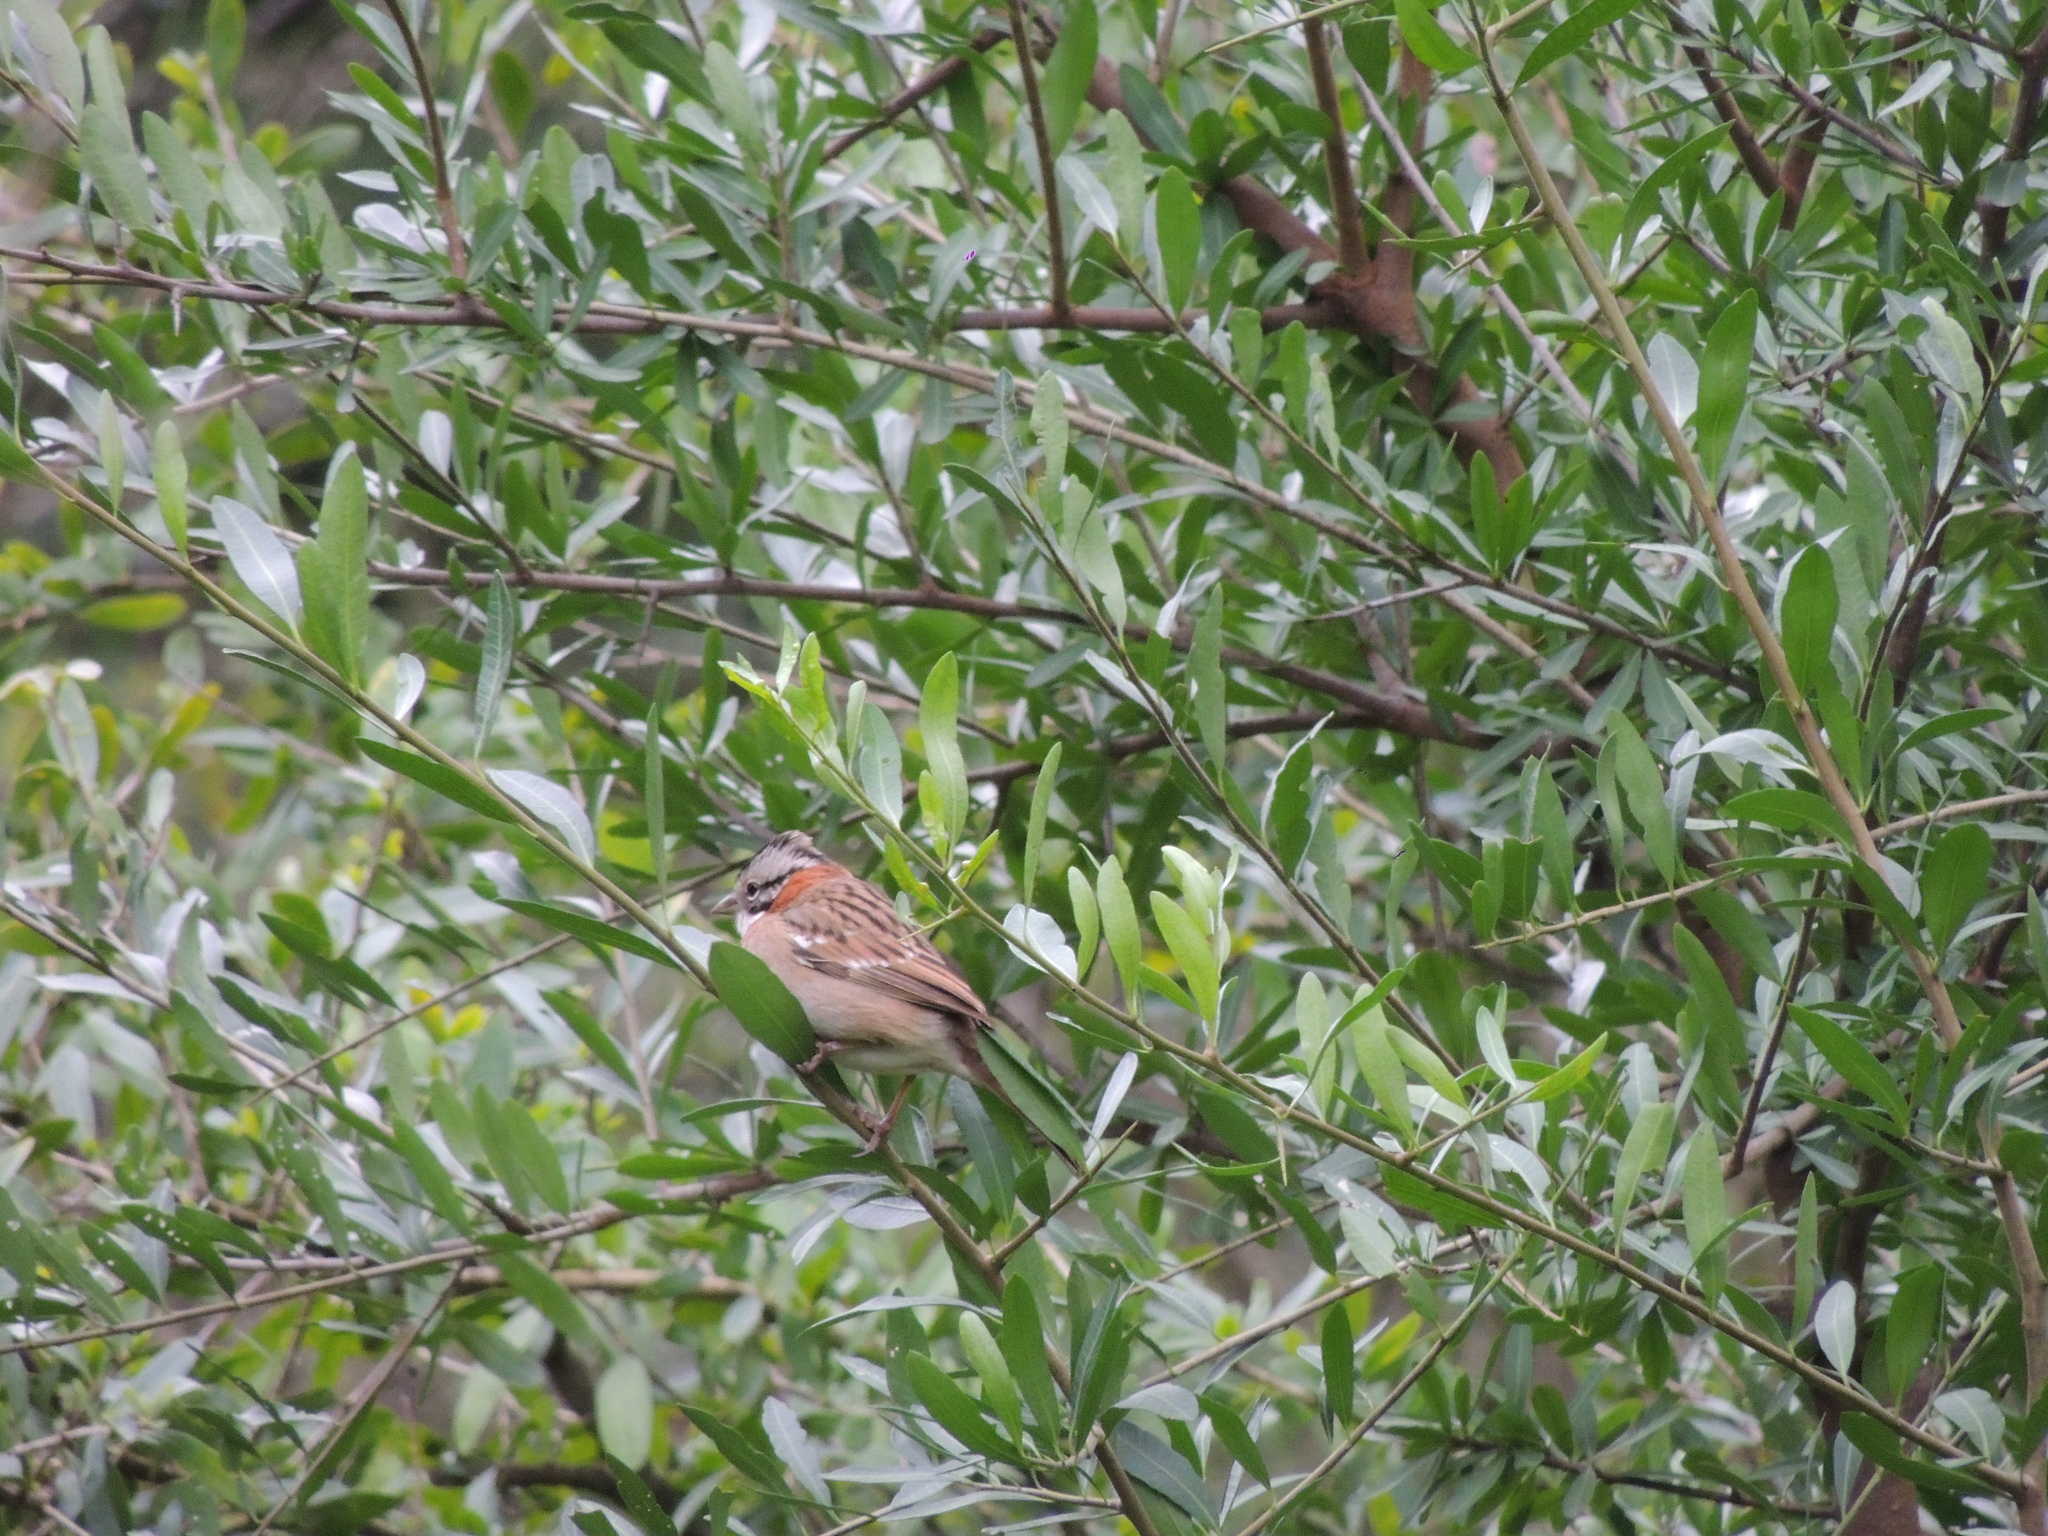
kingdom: Animalia
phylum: Chordata
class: Aves
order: Passeriformes
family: Passerellidae
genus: Zonotrichia
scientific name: Zonotrichia capensis
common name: Rufous-collared sparrow
